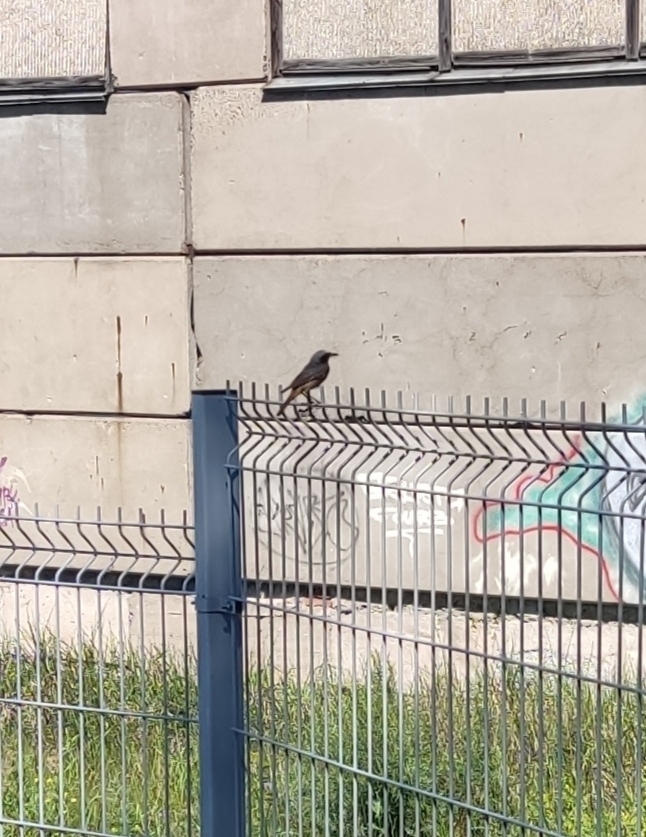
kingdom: Animalia
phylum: Chordata
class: Aves
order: Passeriformes
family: Muscicapidae
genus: Phoenicurus
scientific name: Phoenicurus ochruros
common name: Black redstart
